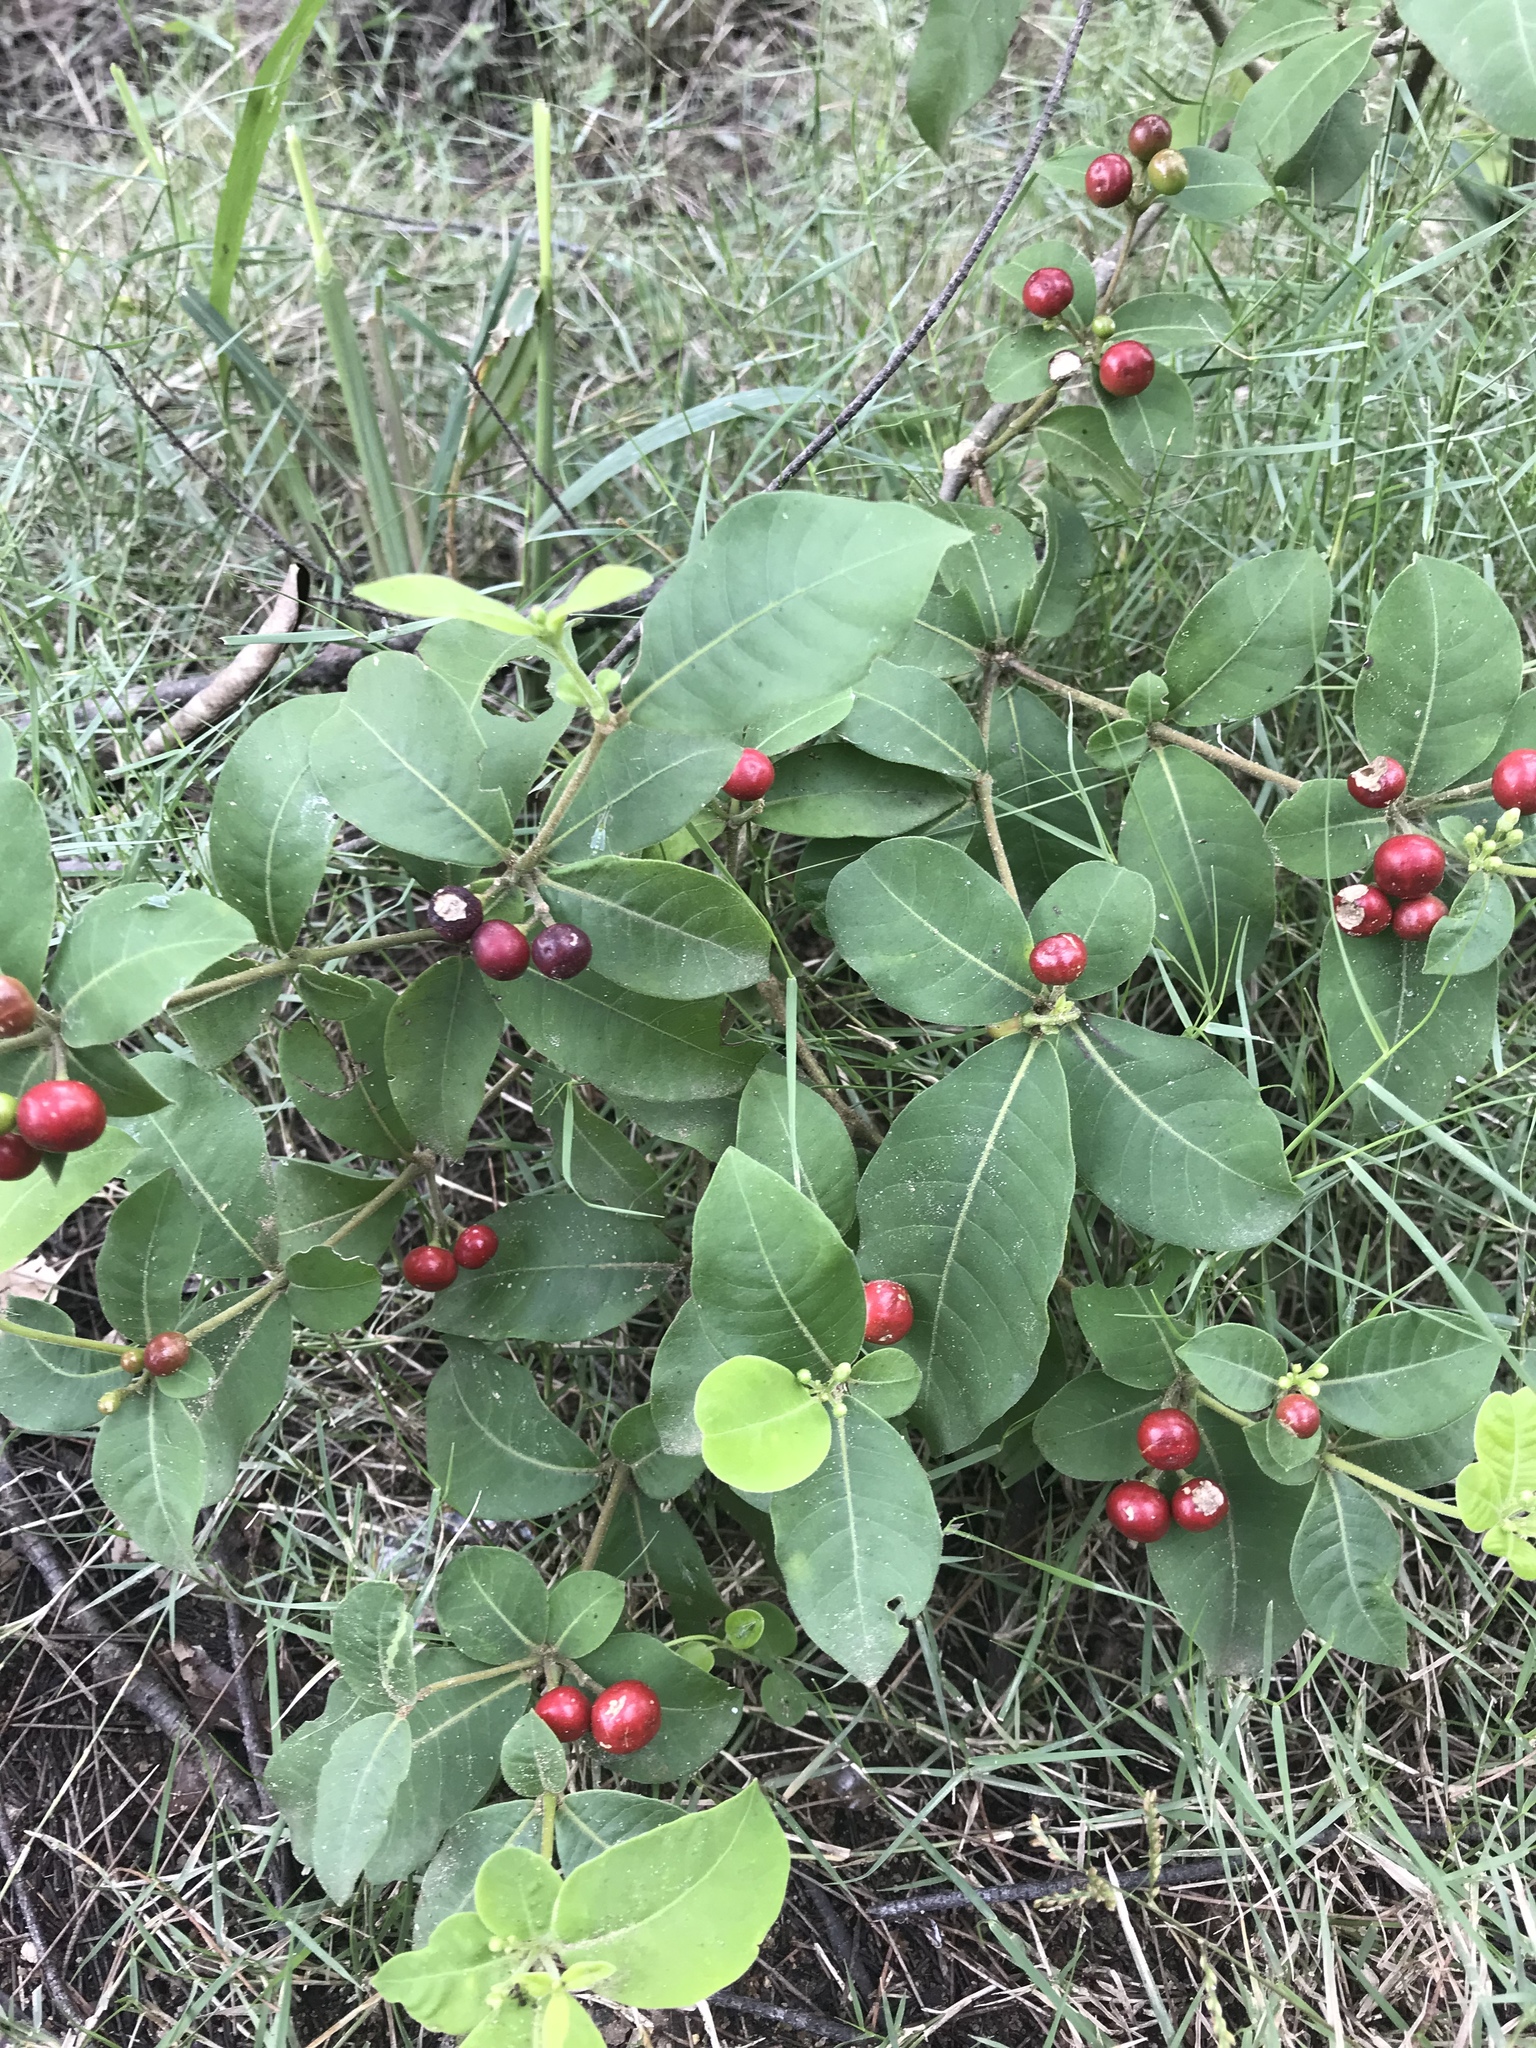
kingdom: Plantae
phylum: Tracheophyta
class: Magnoliopsida
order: Gentianales
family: Apocynaceae
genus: Rauvolfia
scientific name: Rauvolfia tetraphylla
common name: Four-leaf devil-pepper
